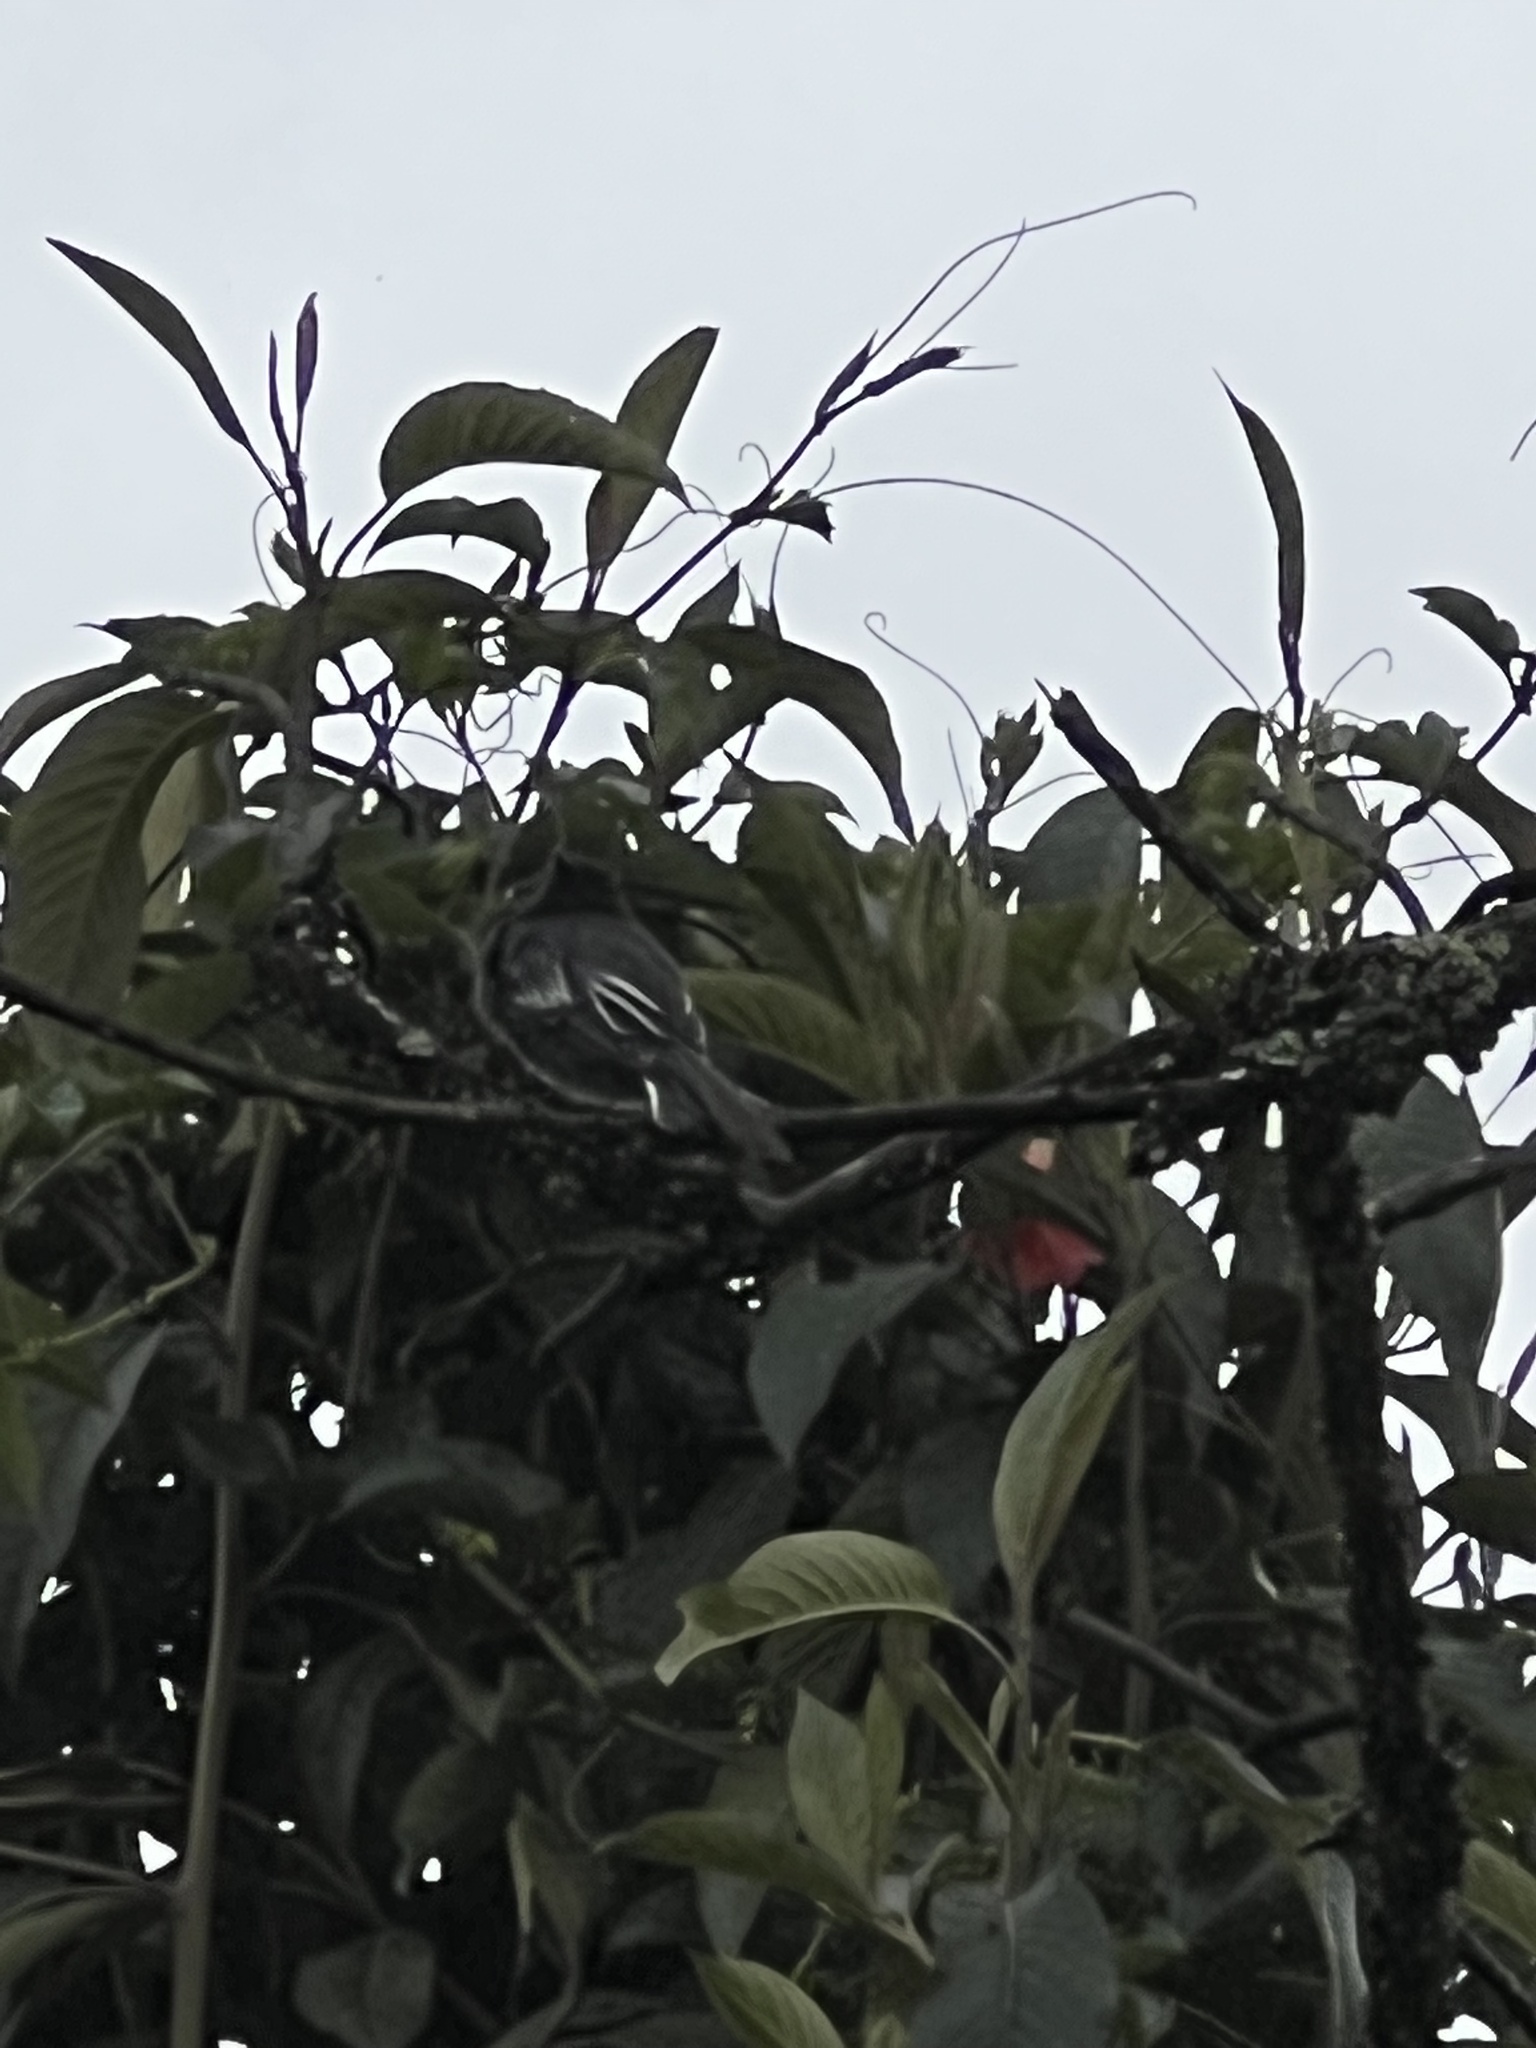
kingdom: Animalia
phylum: Chordata
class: Aves
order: Passeriformes
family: Tyrannidae
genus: Sayornis
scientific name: Sayornis nigricans
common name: Black phoebe
